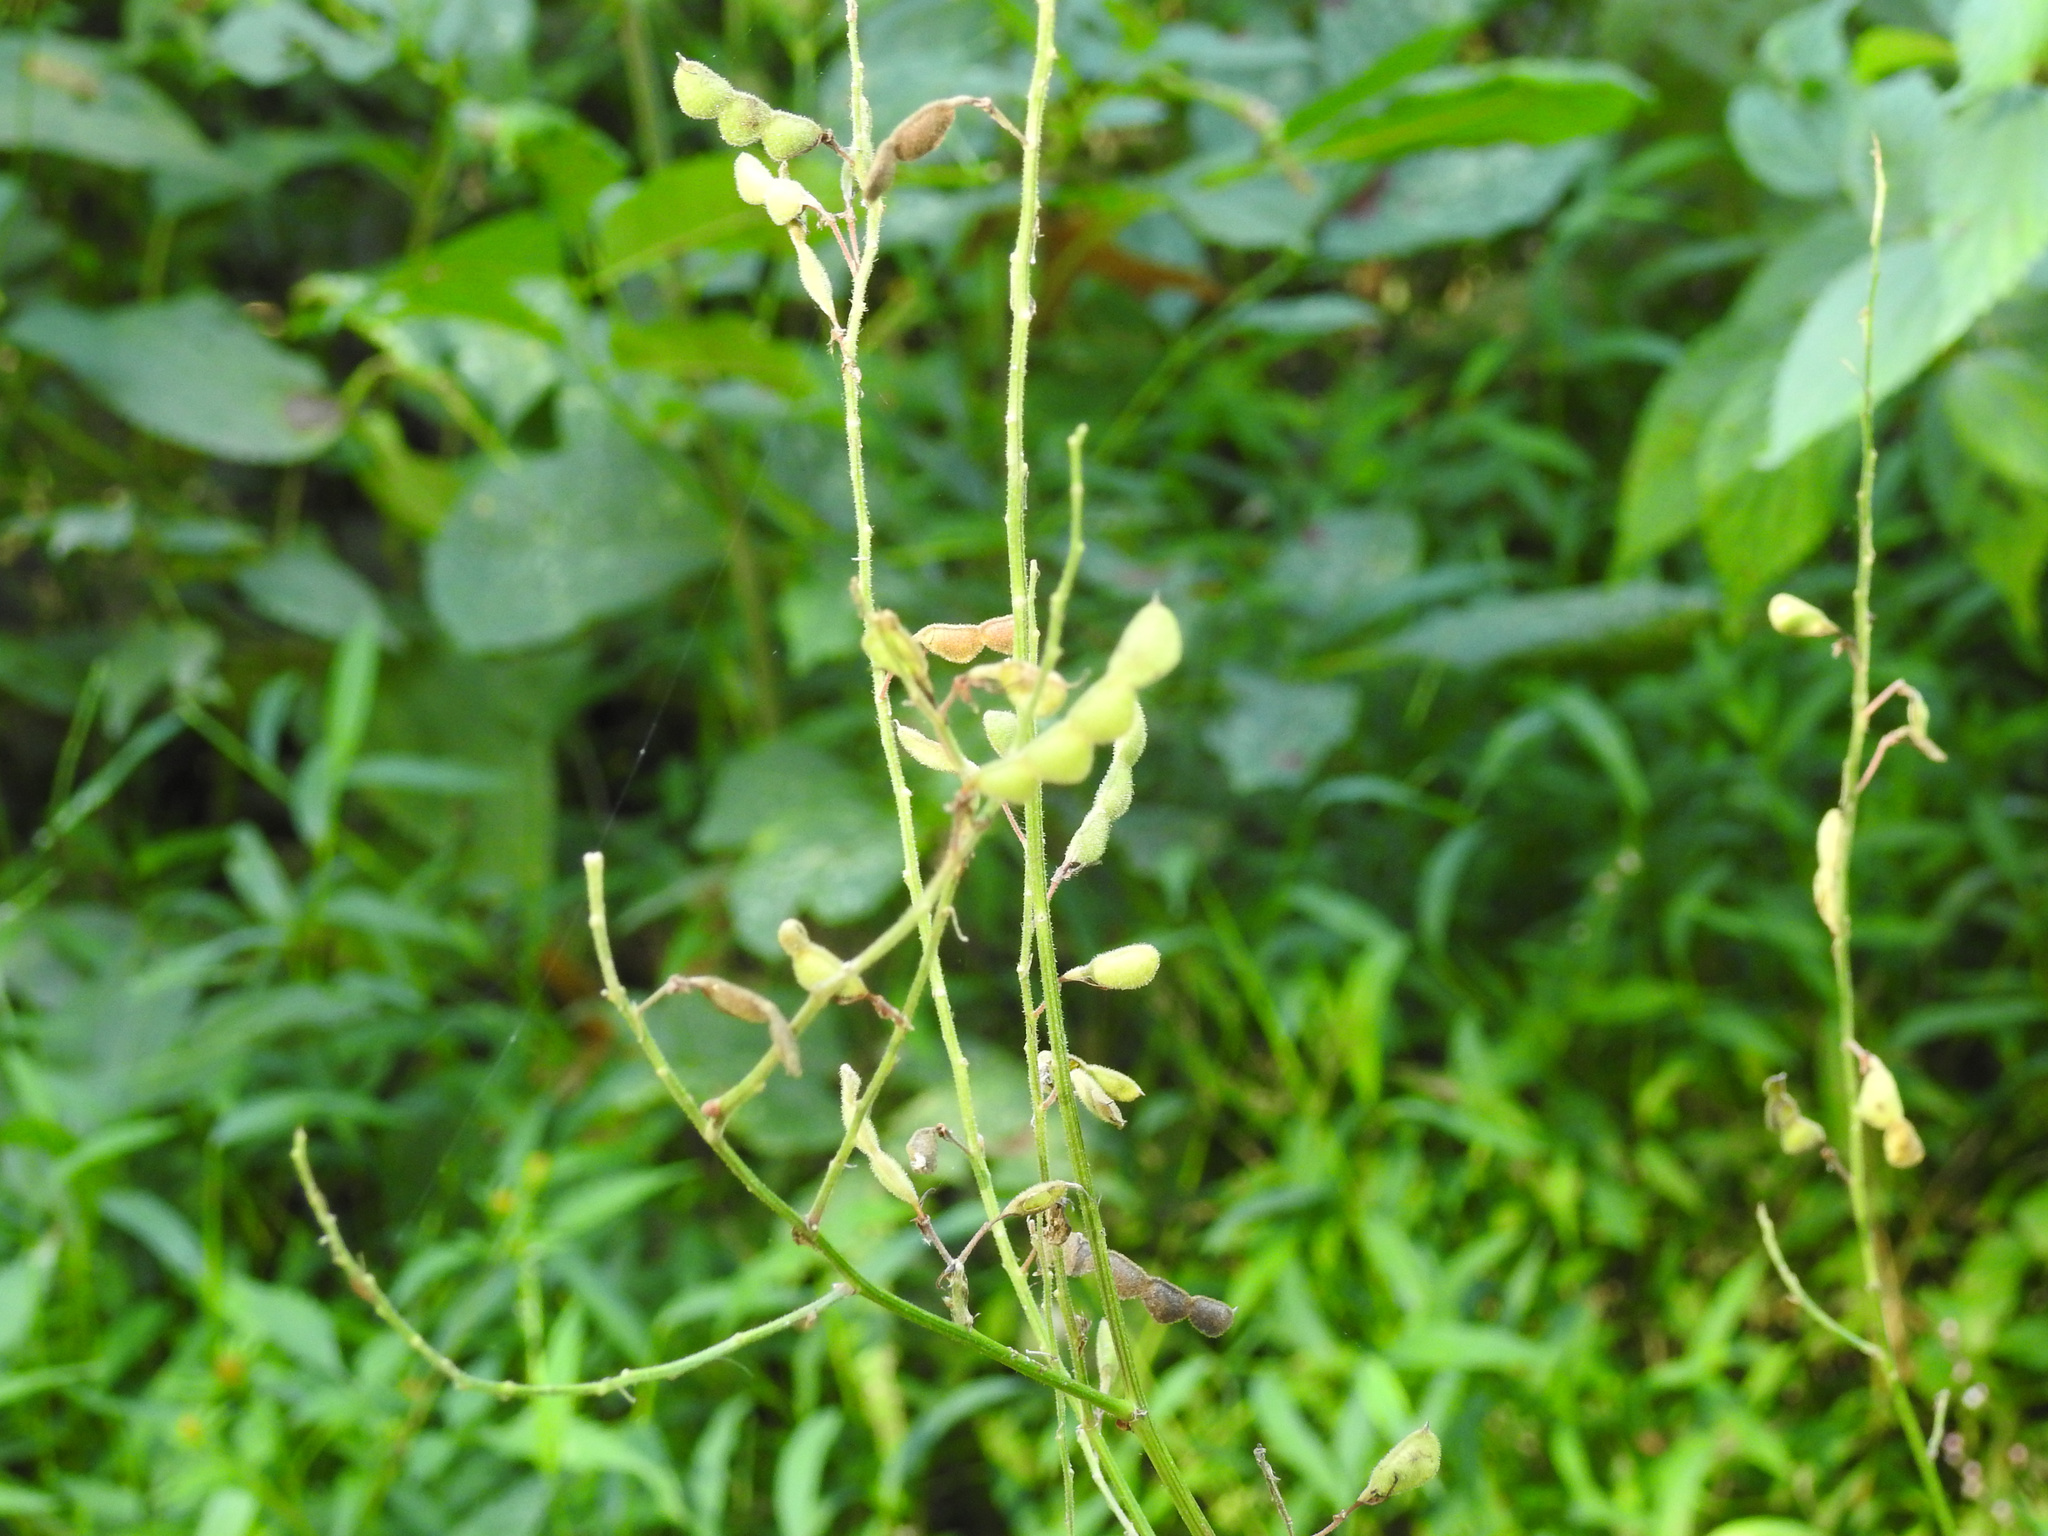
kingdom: Plantae
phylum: Tracheophyta
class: Magnoliopsida
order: Fabales
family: Fabaceae
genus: Desmodium
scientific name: Desmodium
